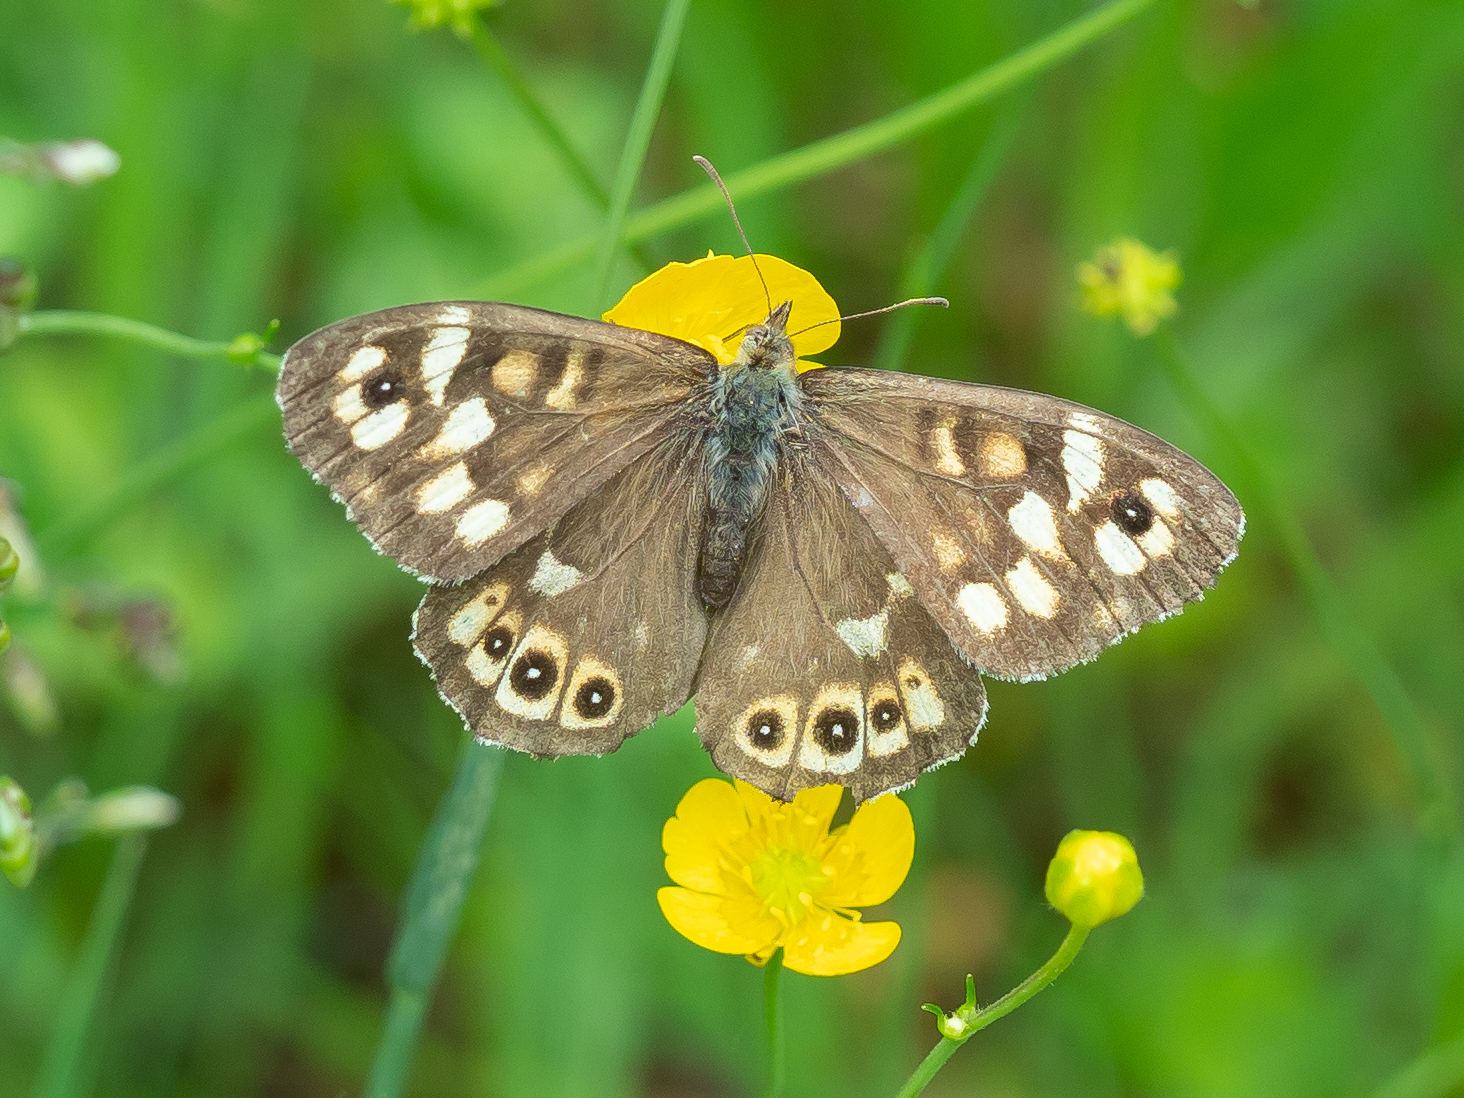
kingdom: Animalia
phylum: Arthropoda
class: Insecta
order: Lepidoptera
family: Nymphalidae
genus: Pararge
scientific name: Pararge aegeria
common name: Speckled wood
